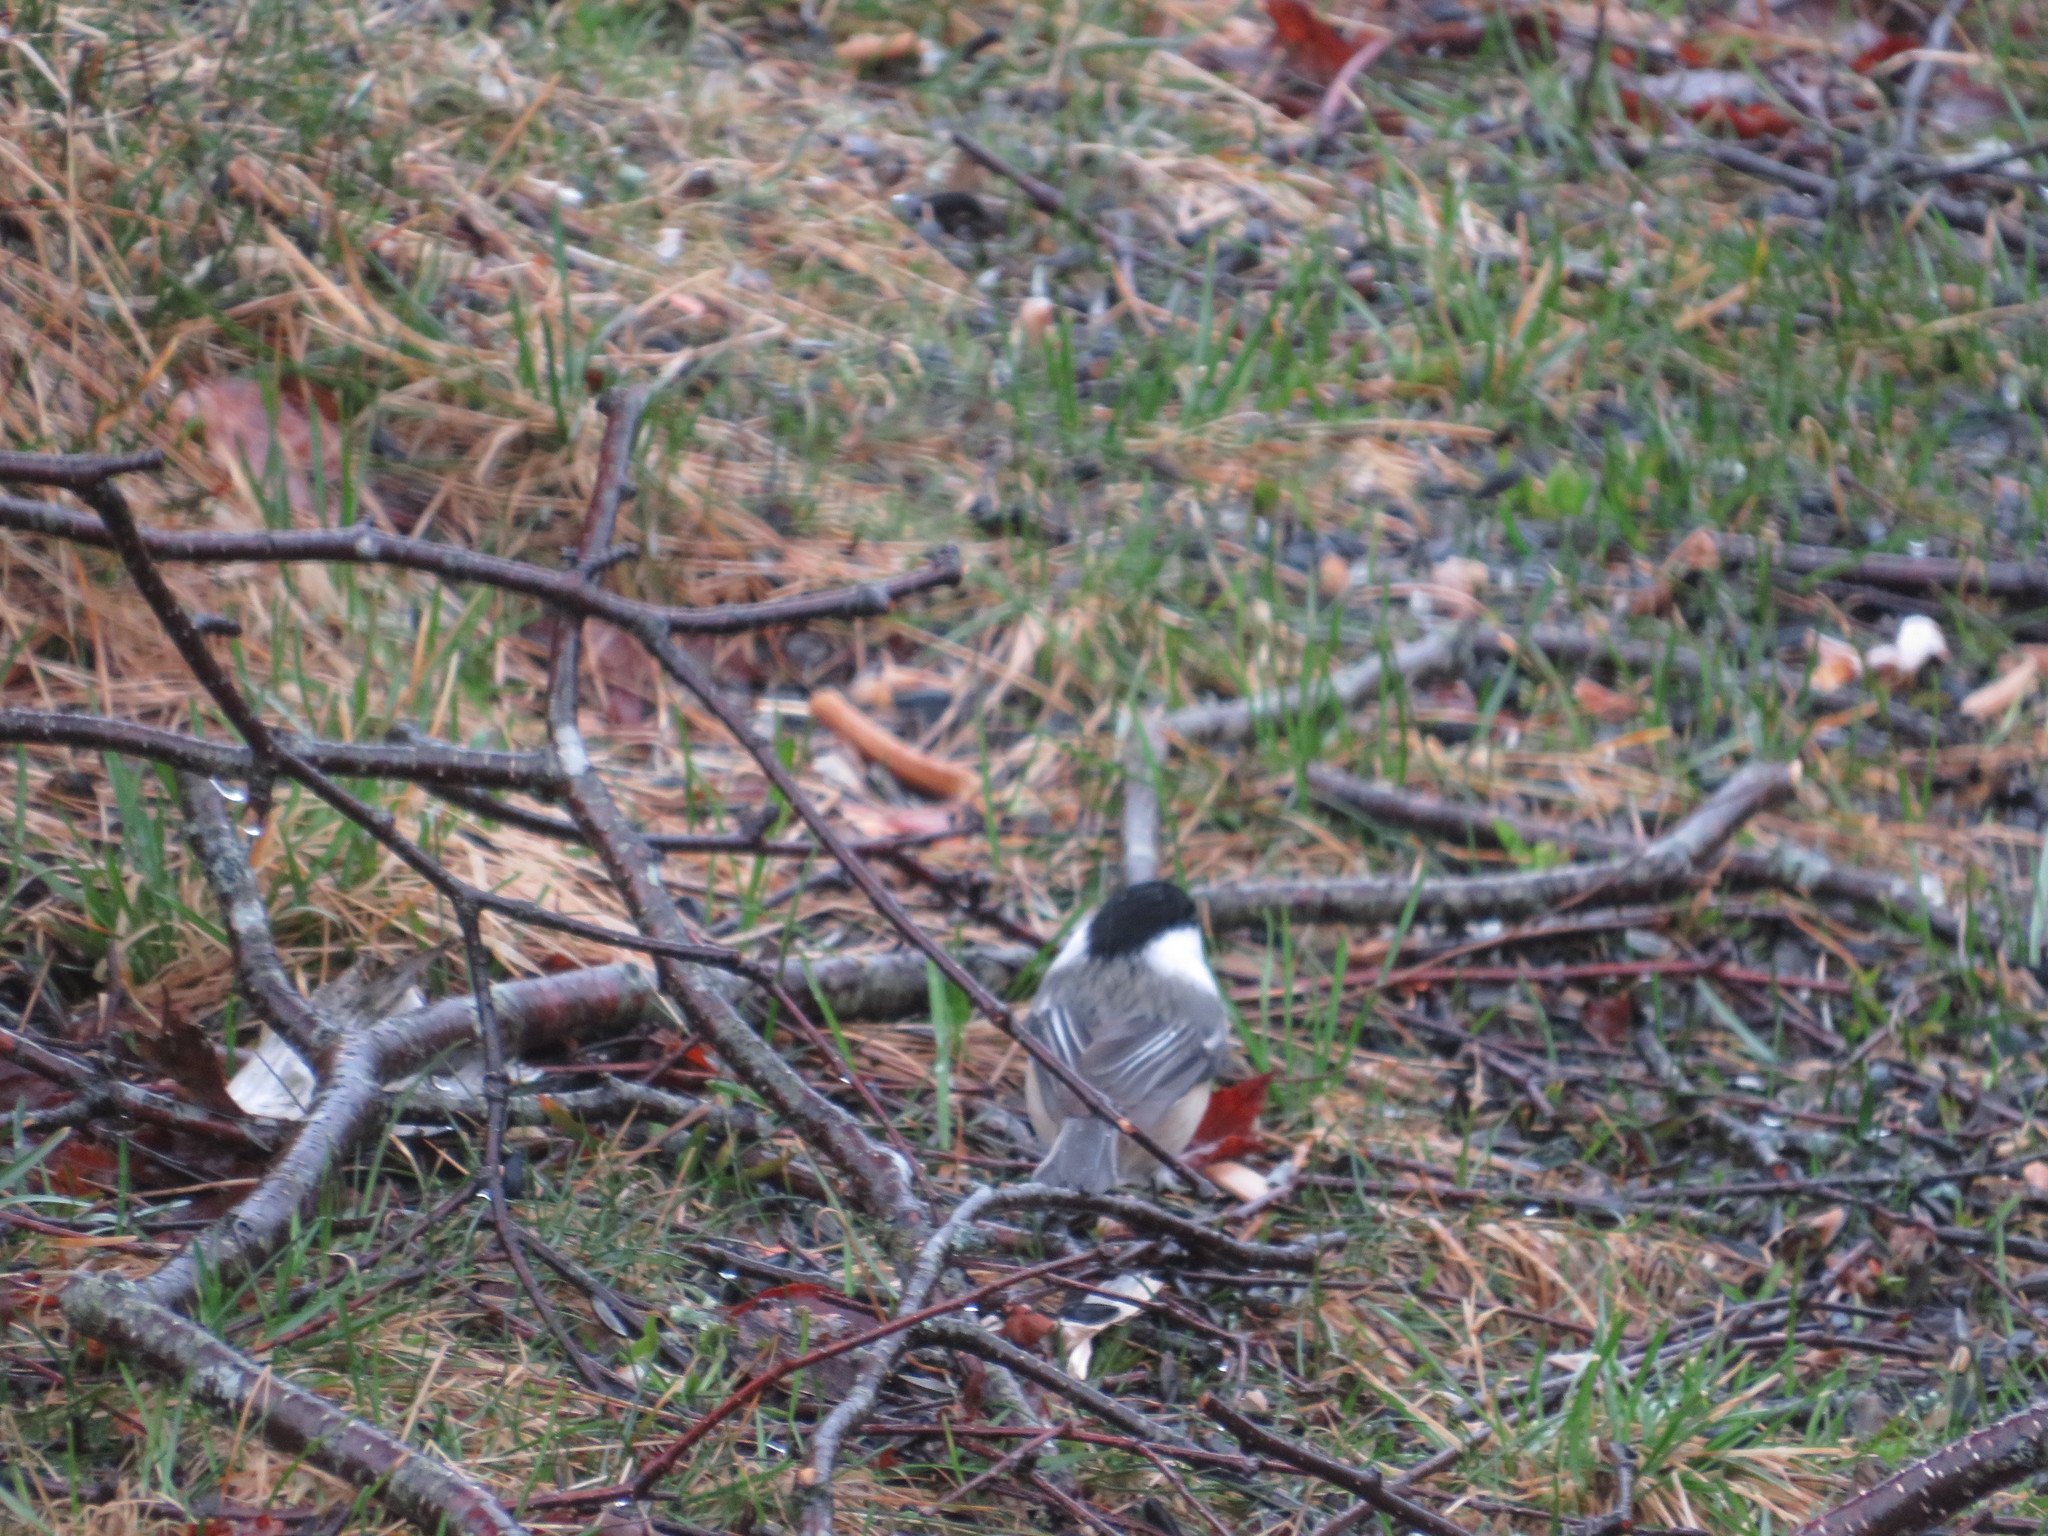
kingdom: Animalia
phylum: Chordata
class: Aves
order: Passeriformes
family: Paridae
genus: Poecile
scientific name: Poecile atricapillus
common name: Black-capped chickadee
